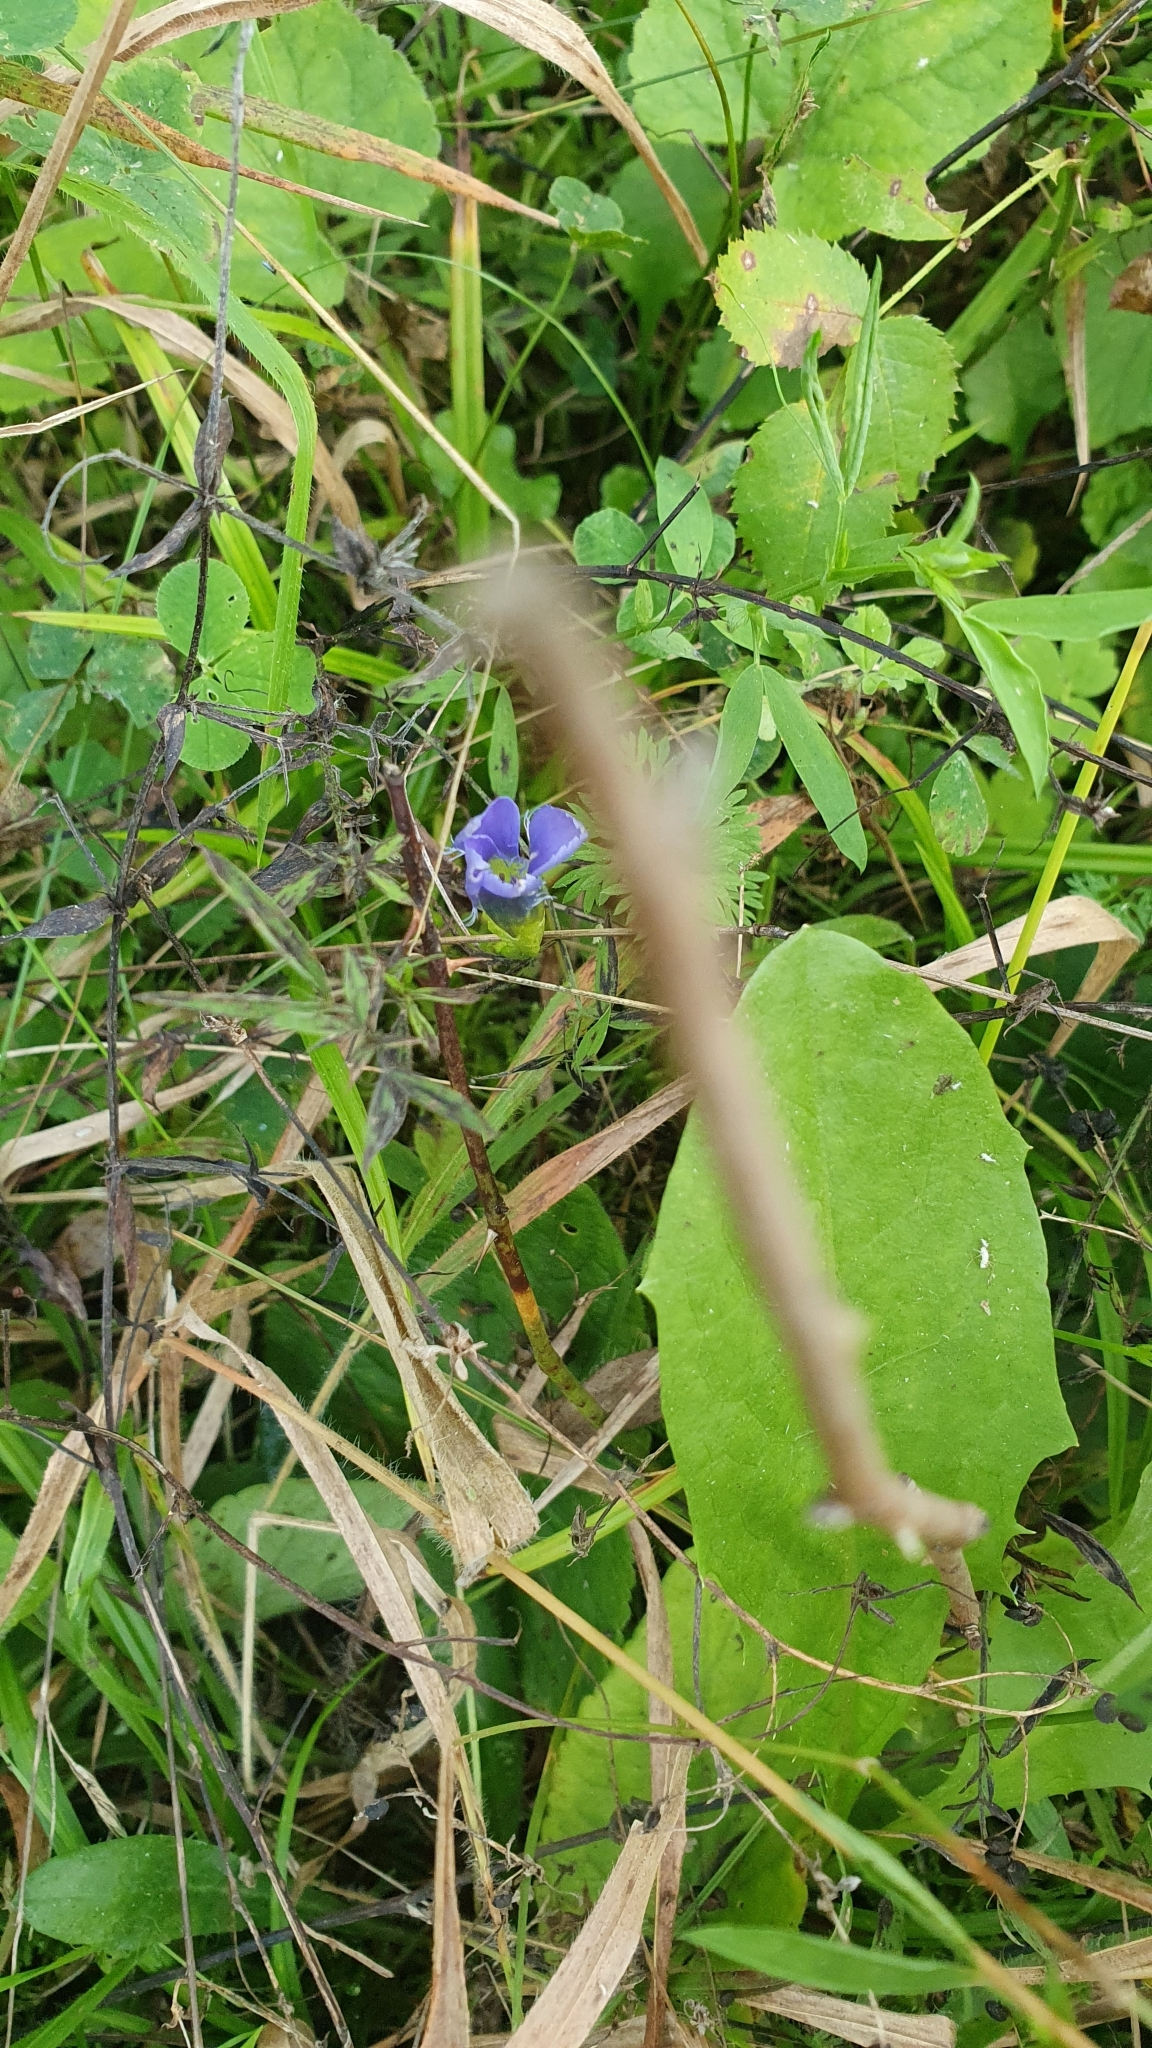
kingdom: Plantae
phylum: Tracheophyta
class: Magnoliopsida
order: Gentianales
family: Gentianaceae
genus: Gentianopsis
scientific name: Gentianopsis ciliata
